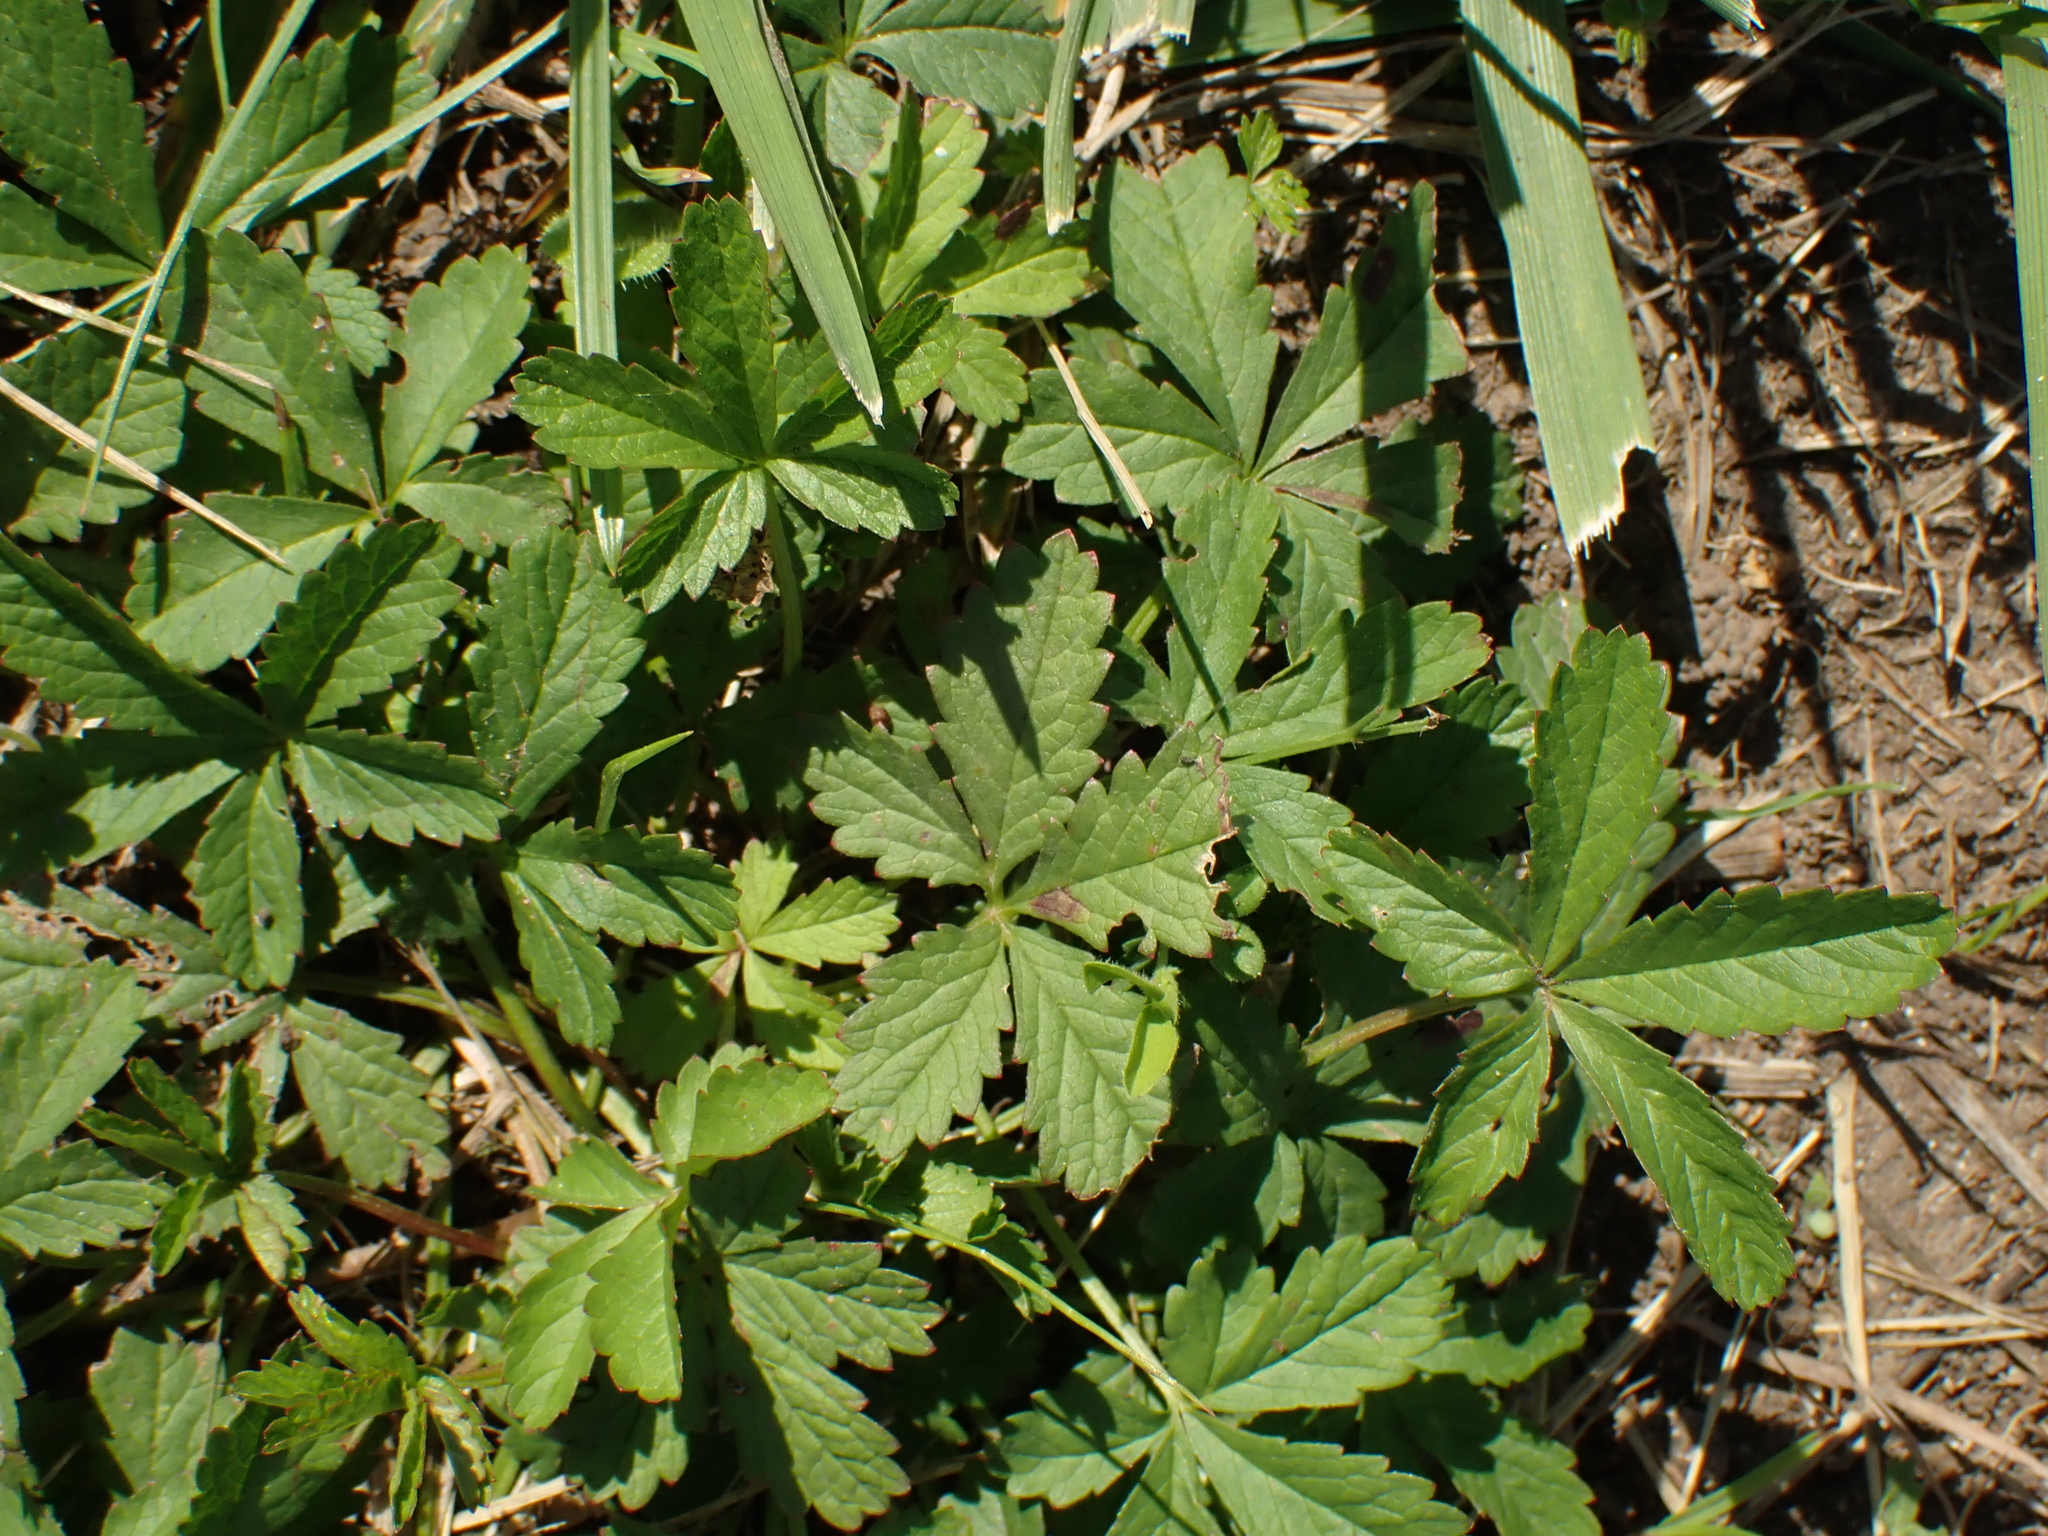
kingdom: Plantae
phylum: Tracheophyta
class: Magnoliopsida
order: Rosales
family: Rosaceae
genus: Potentilla
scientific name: Potentilla reptans
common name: Creeping cinquefoil
